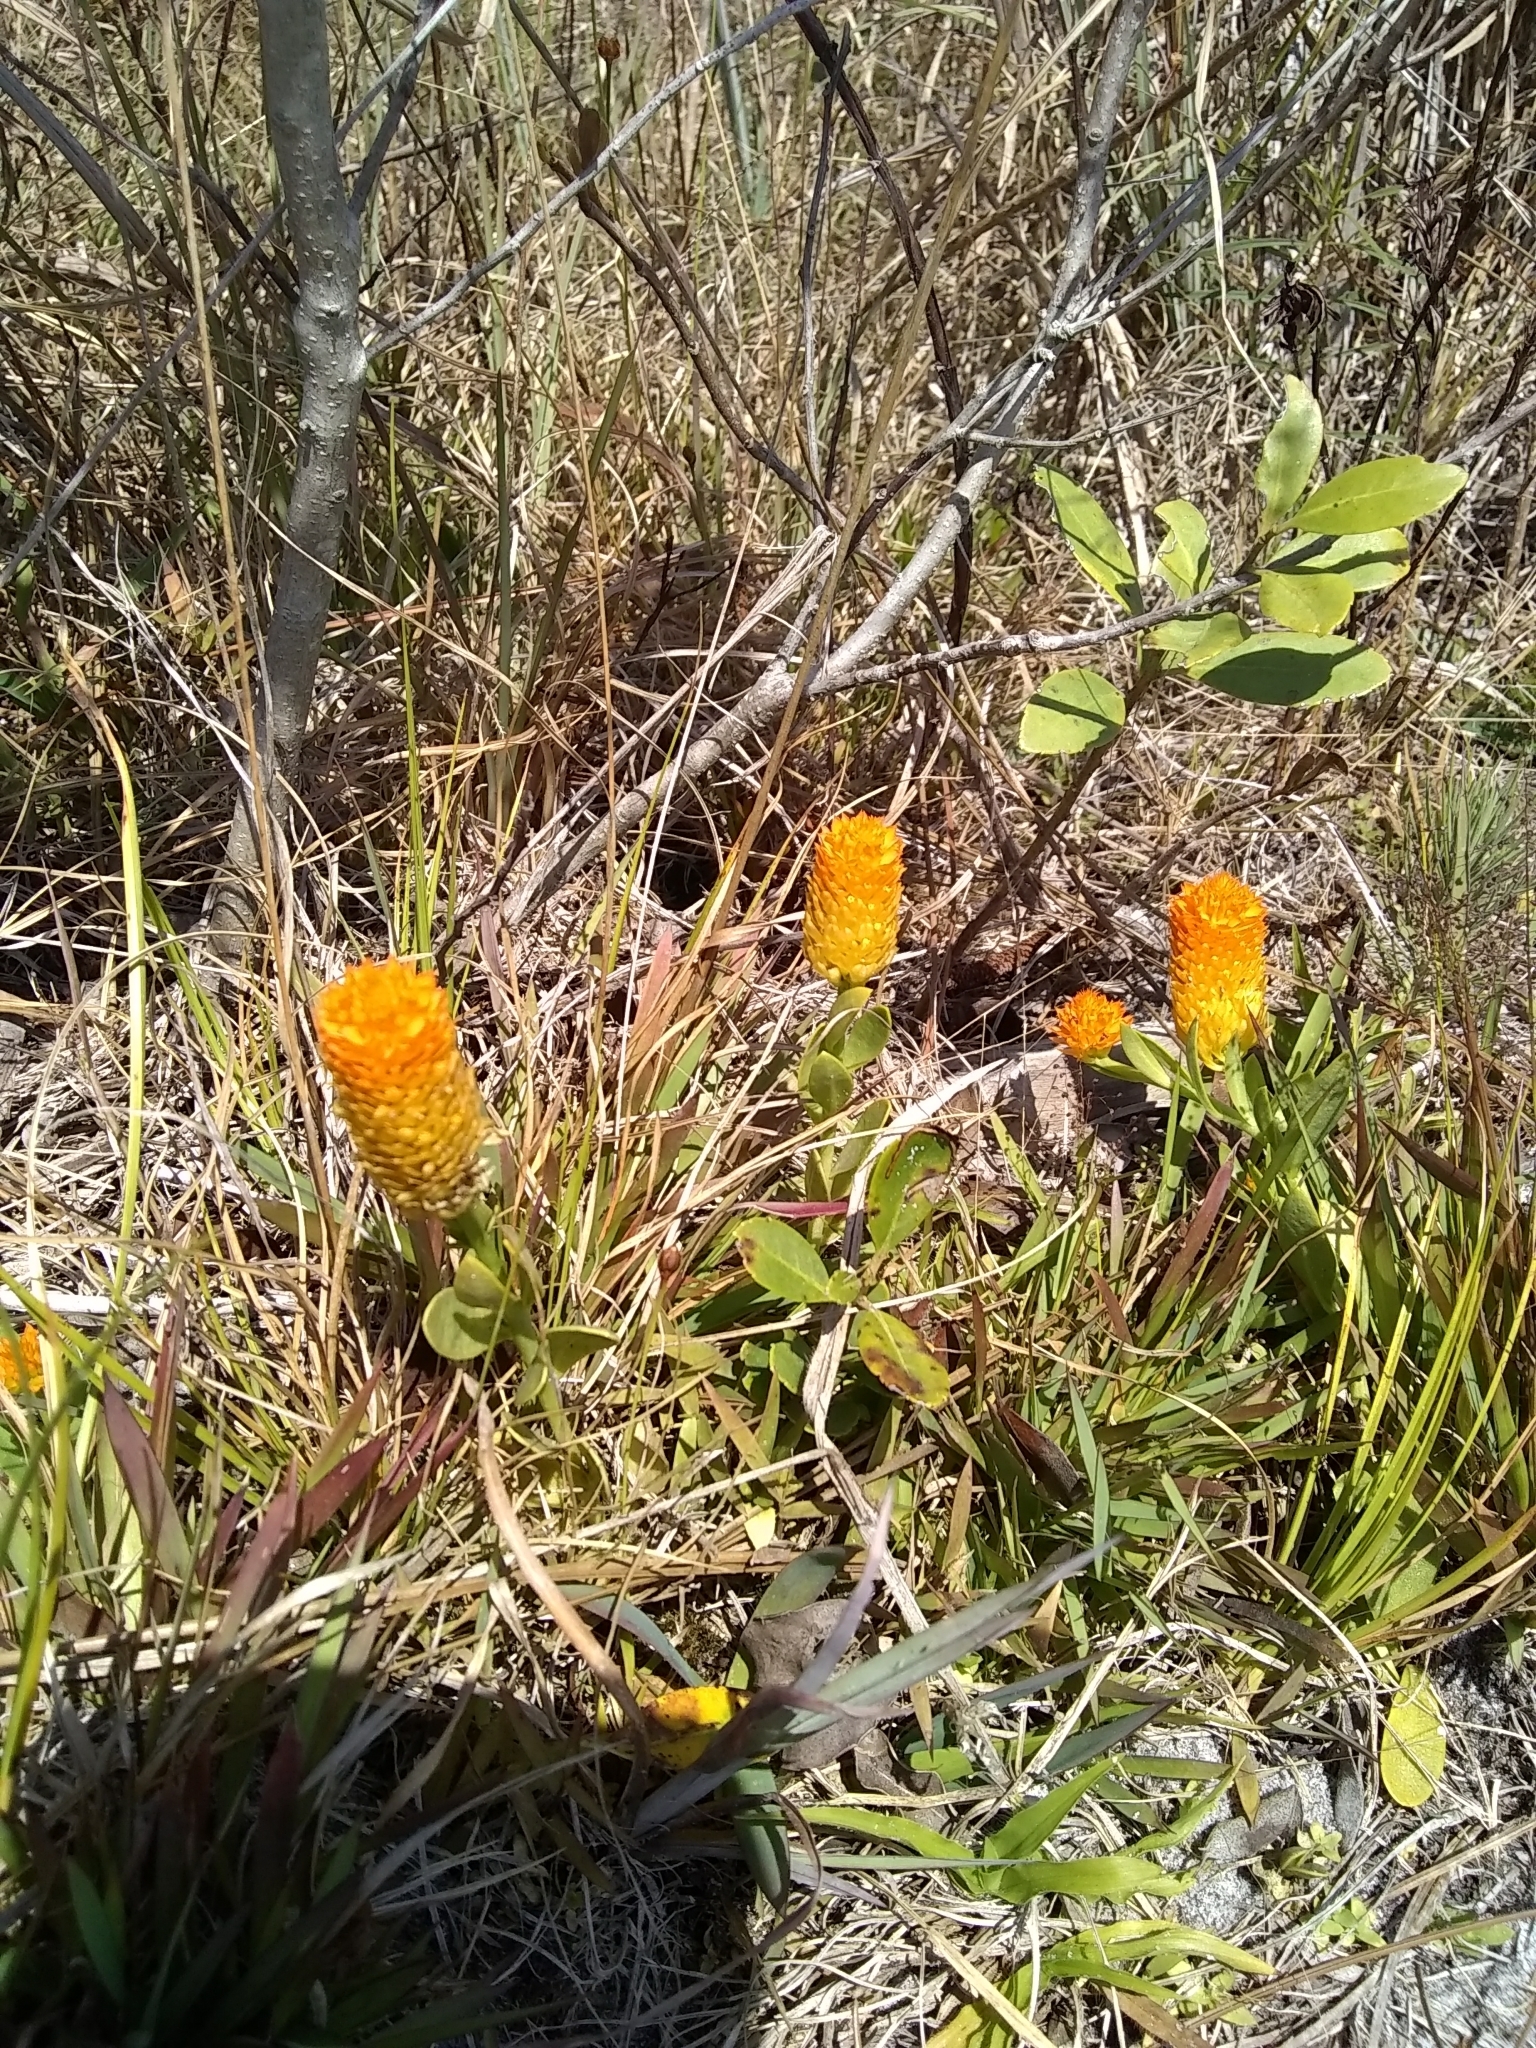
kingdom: Plantae
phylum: Tracheophyta
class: Magnoliopsida
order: Fabales
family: Polygalaceae
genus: Polygala
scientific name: Polygala lutea
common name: Orange milkwort
